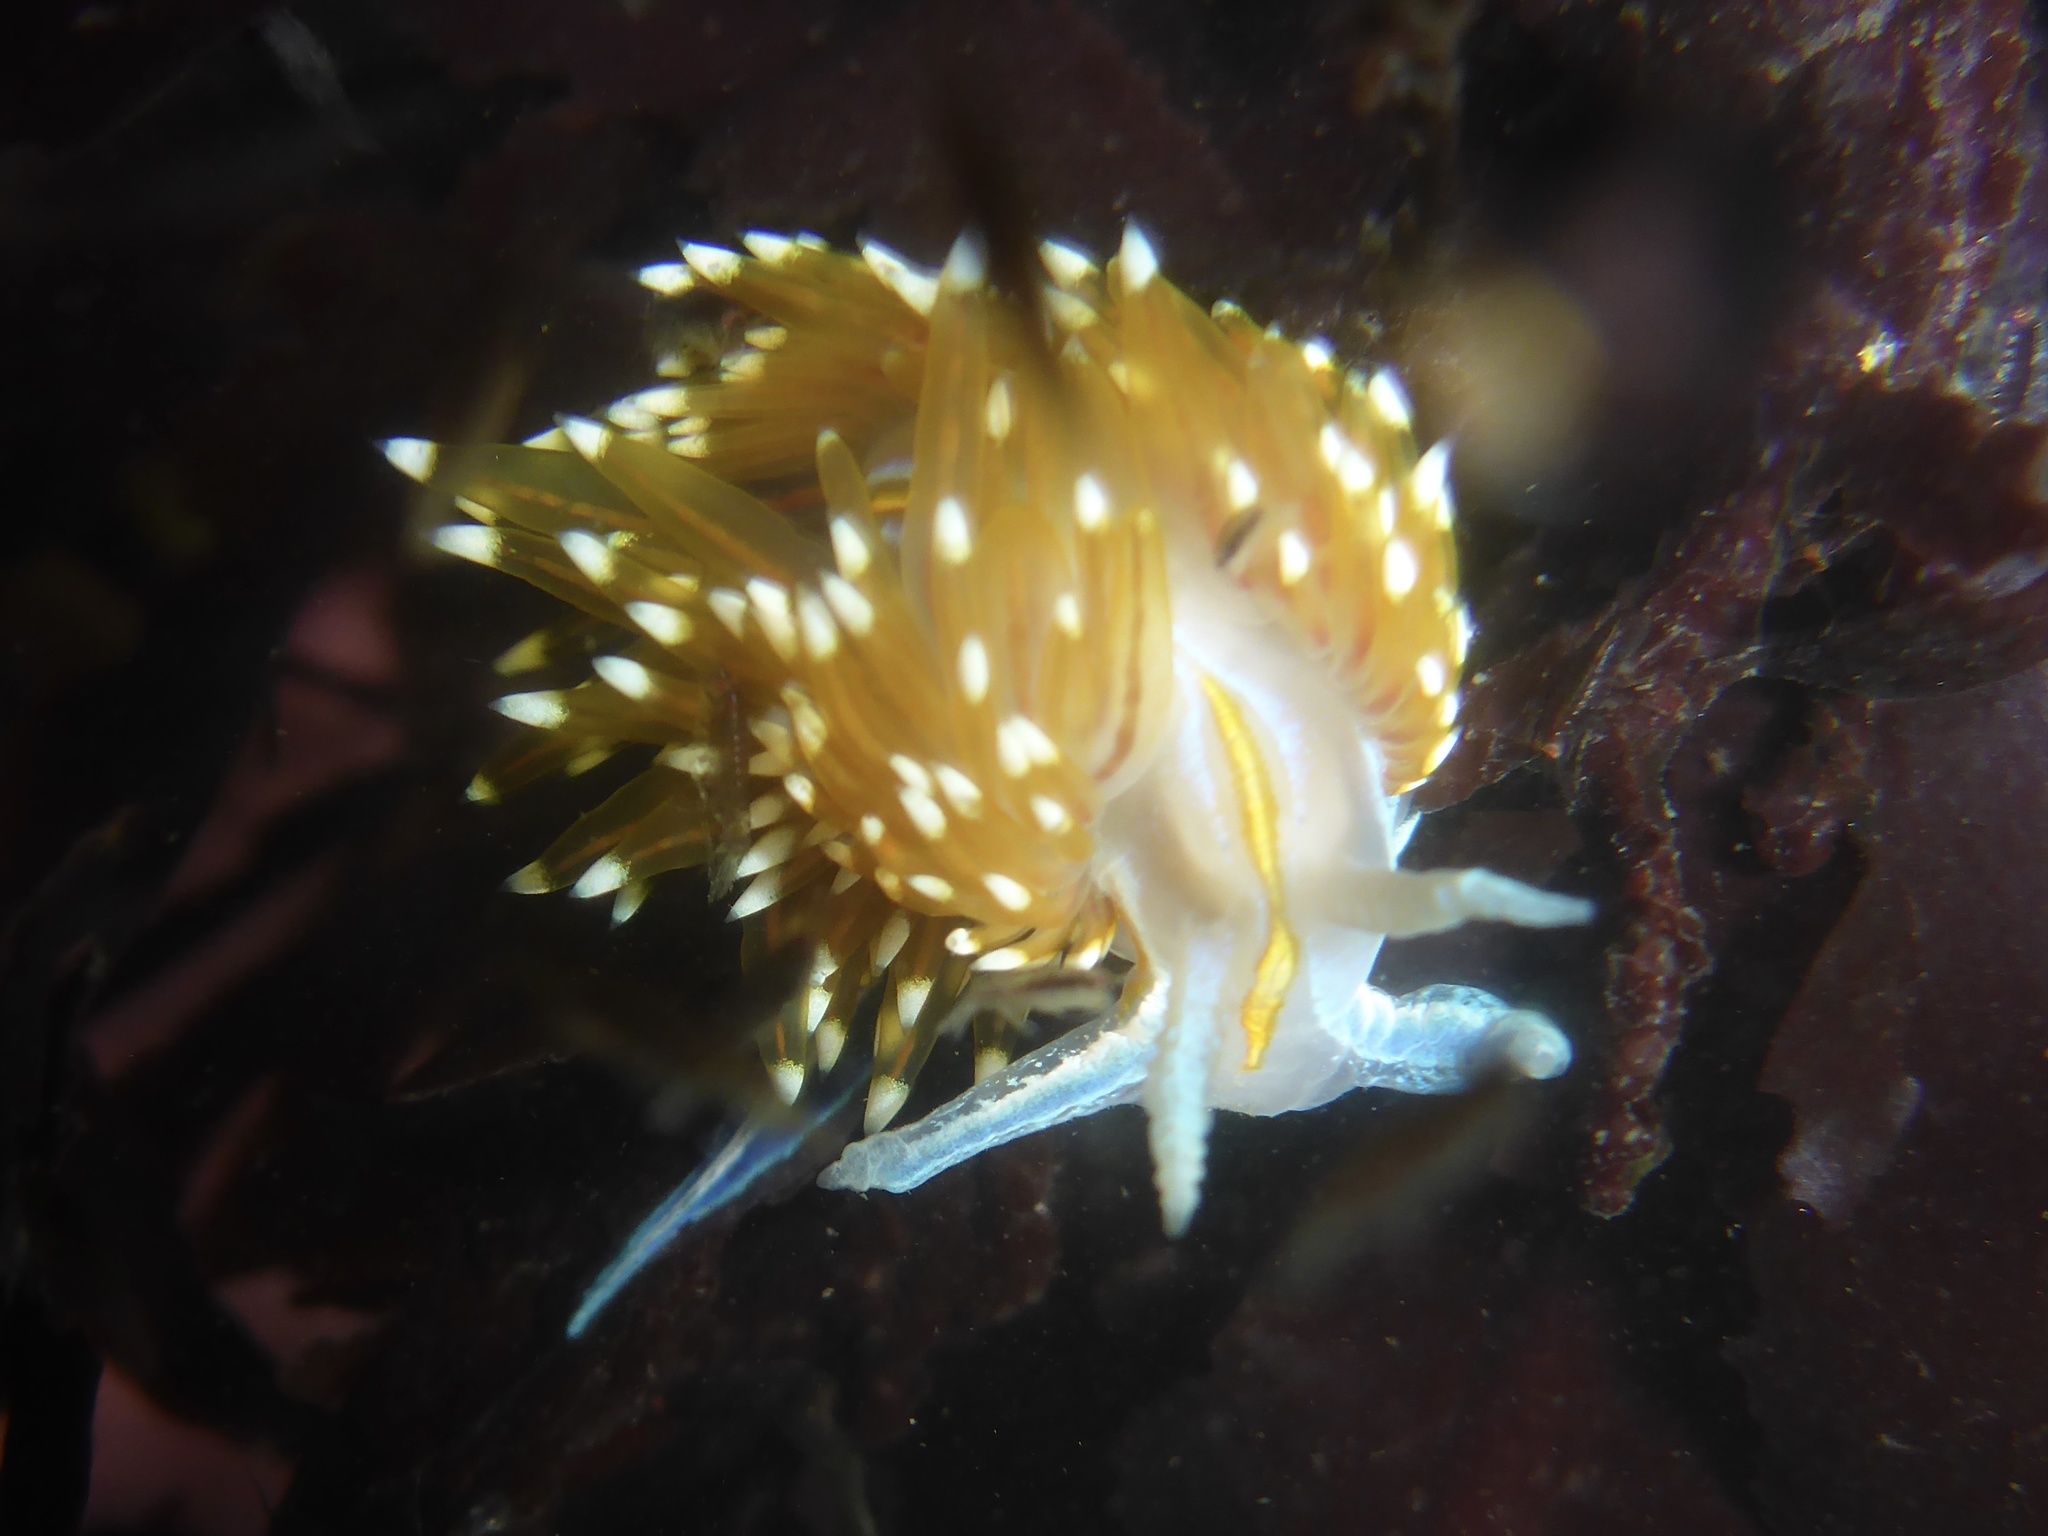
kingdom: Animalia
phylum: Mollusca
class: Gastropoda
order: Nudibranchia
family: Myrrhinidae
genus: Hermissenda
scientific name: Hermissenda opalescens
